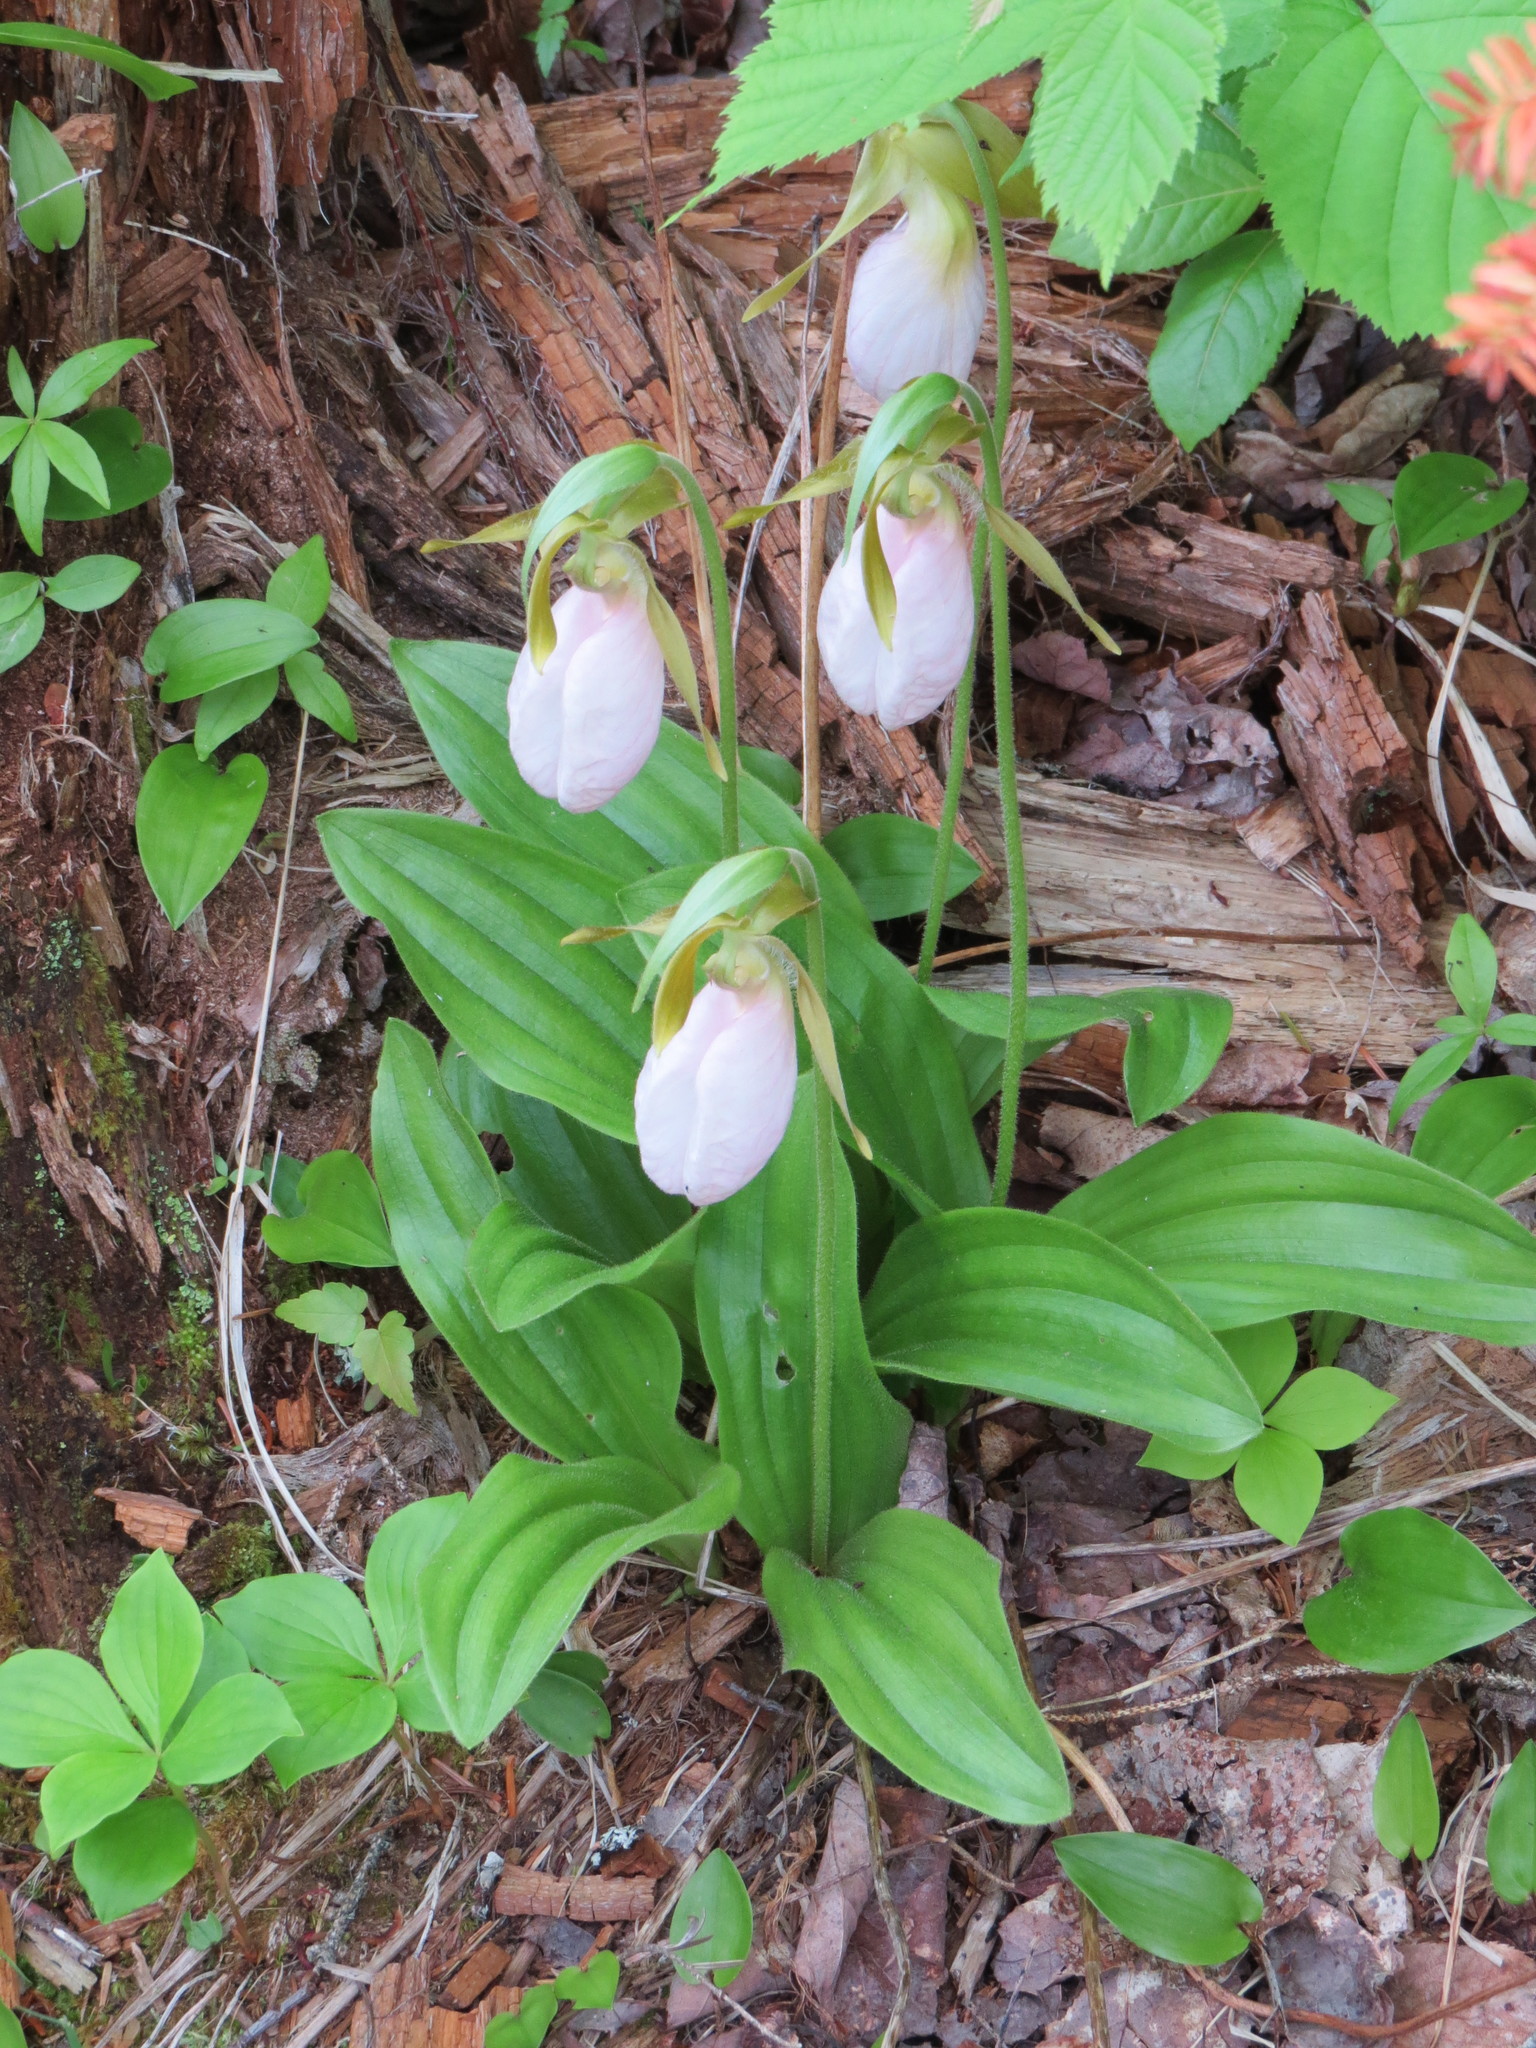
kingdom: Plantae
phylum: Tracheophyta
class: Liliopsida
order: Asparagales
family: Orchidaceae
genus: Cypripedium
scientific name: Cypripedium acaule
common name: Pink lady's-slipper
